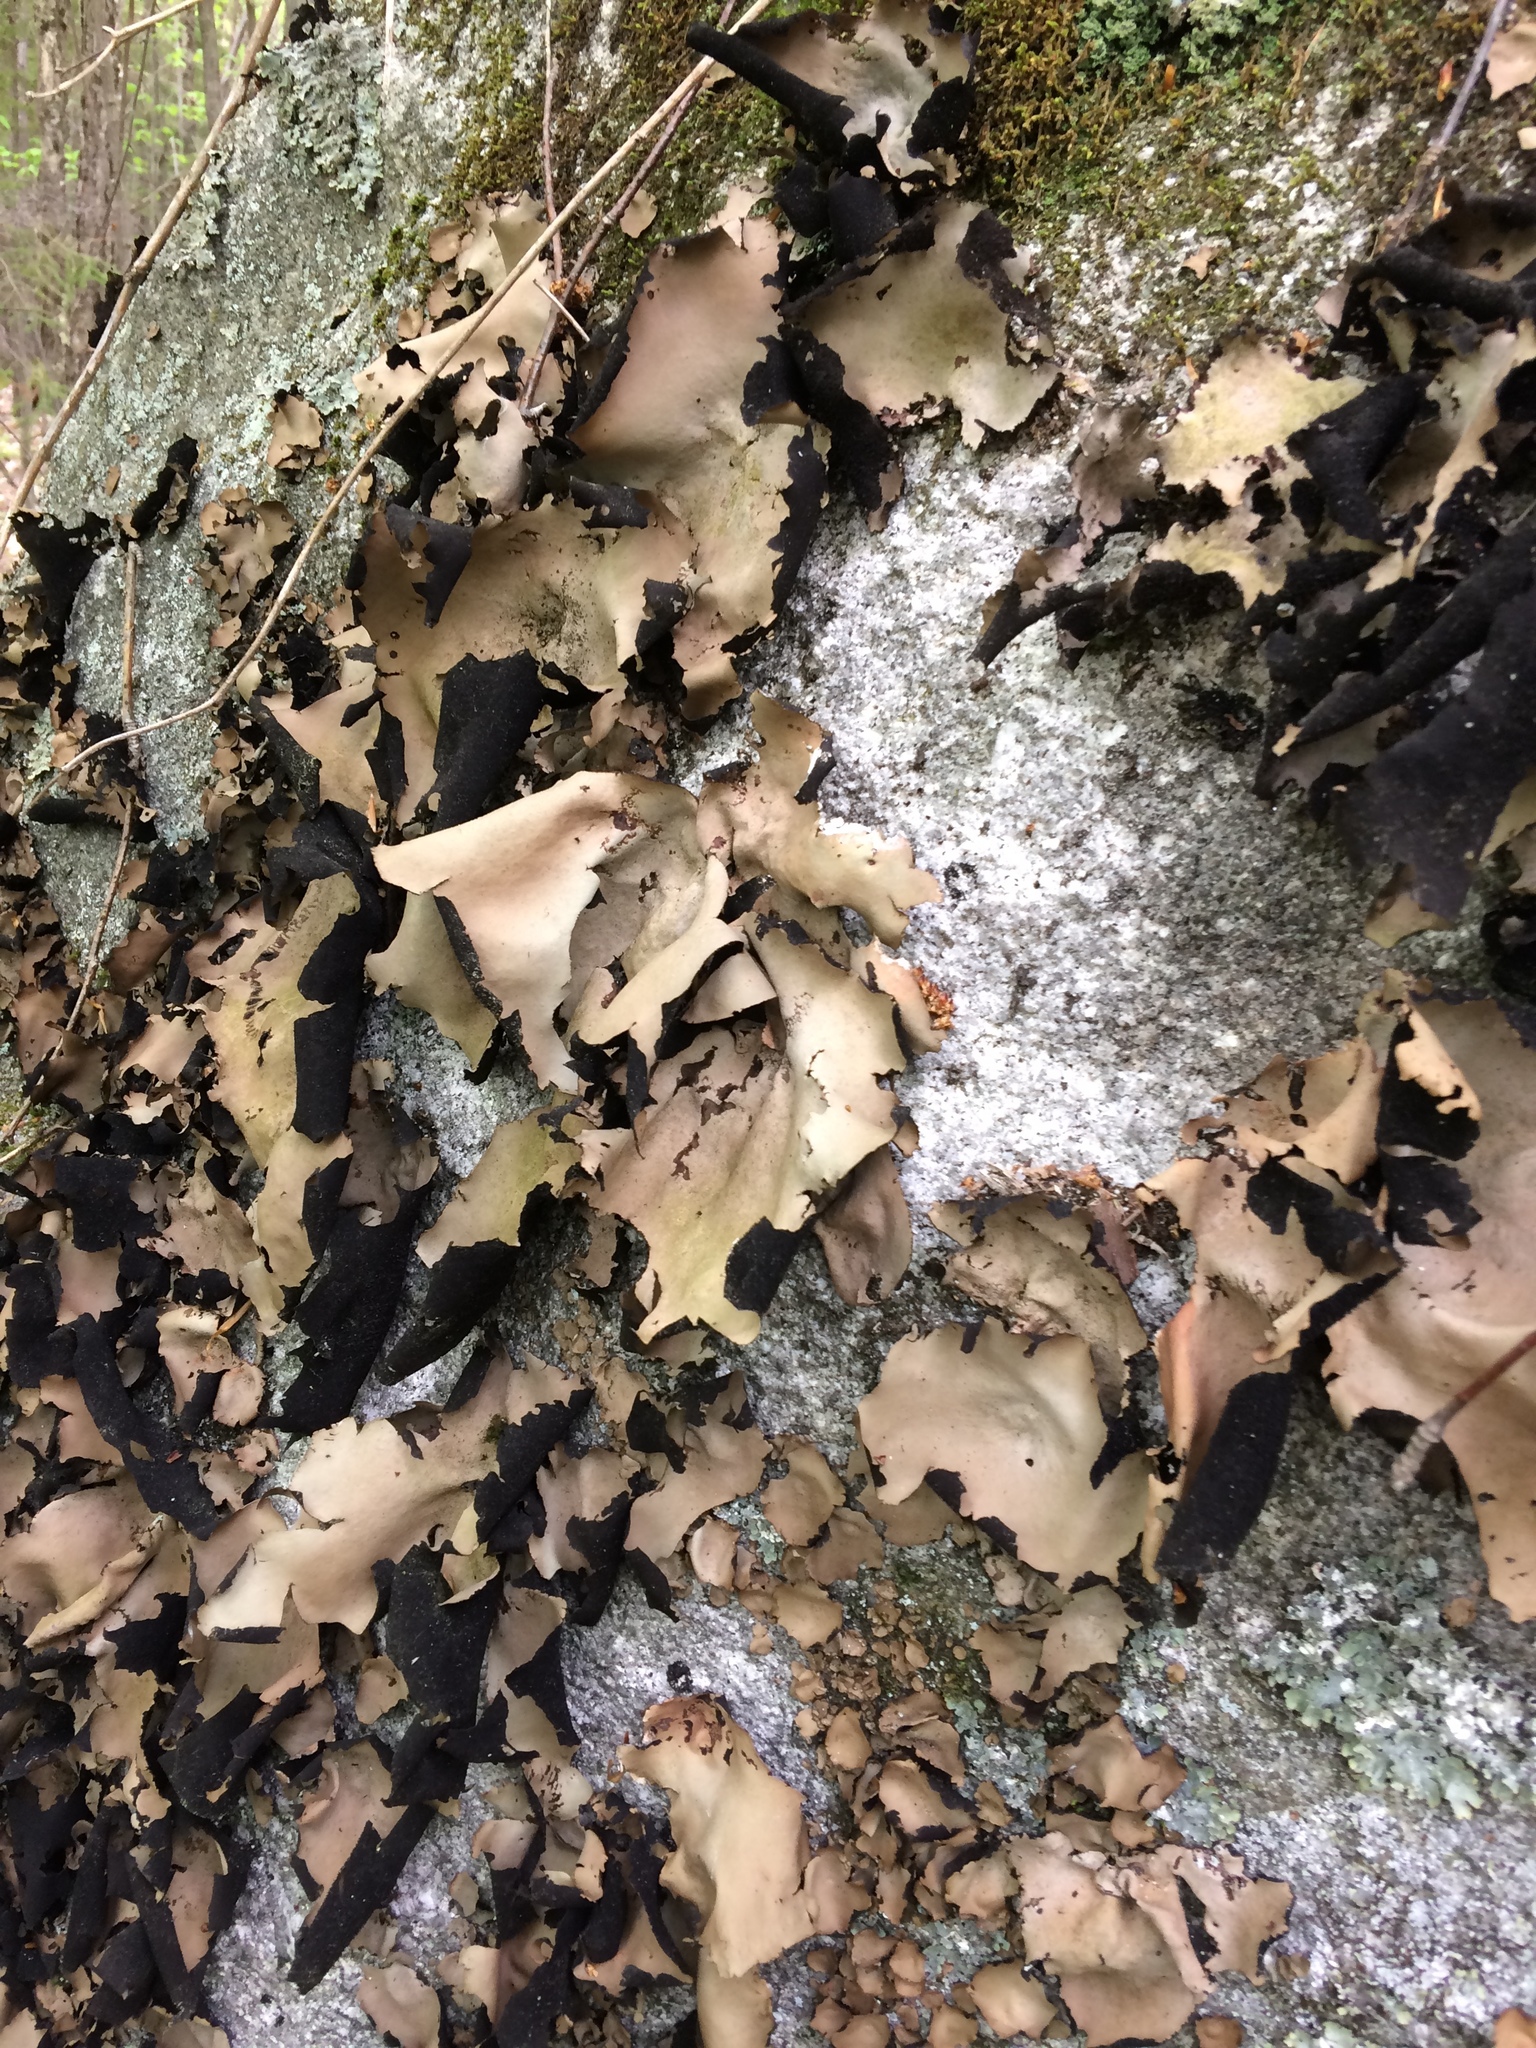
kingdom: Fungi
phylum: Ascomycota
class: Lecanoromycetes
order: Umbilicariales
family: Umbilicariaceae
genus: Umbilicaria
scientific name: Umbilicaria mammulata
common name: Smooth rock tripe
